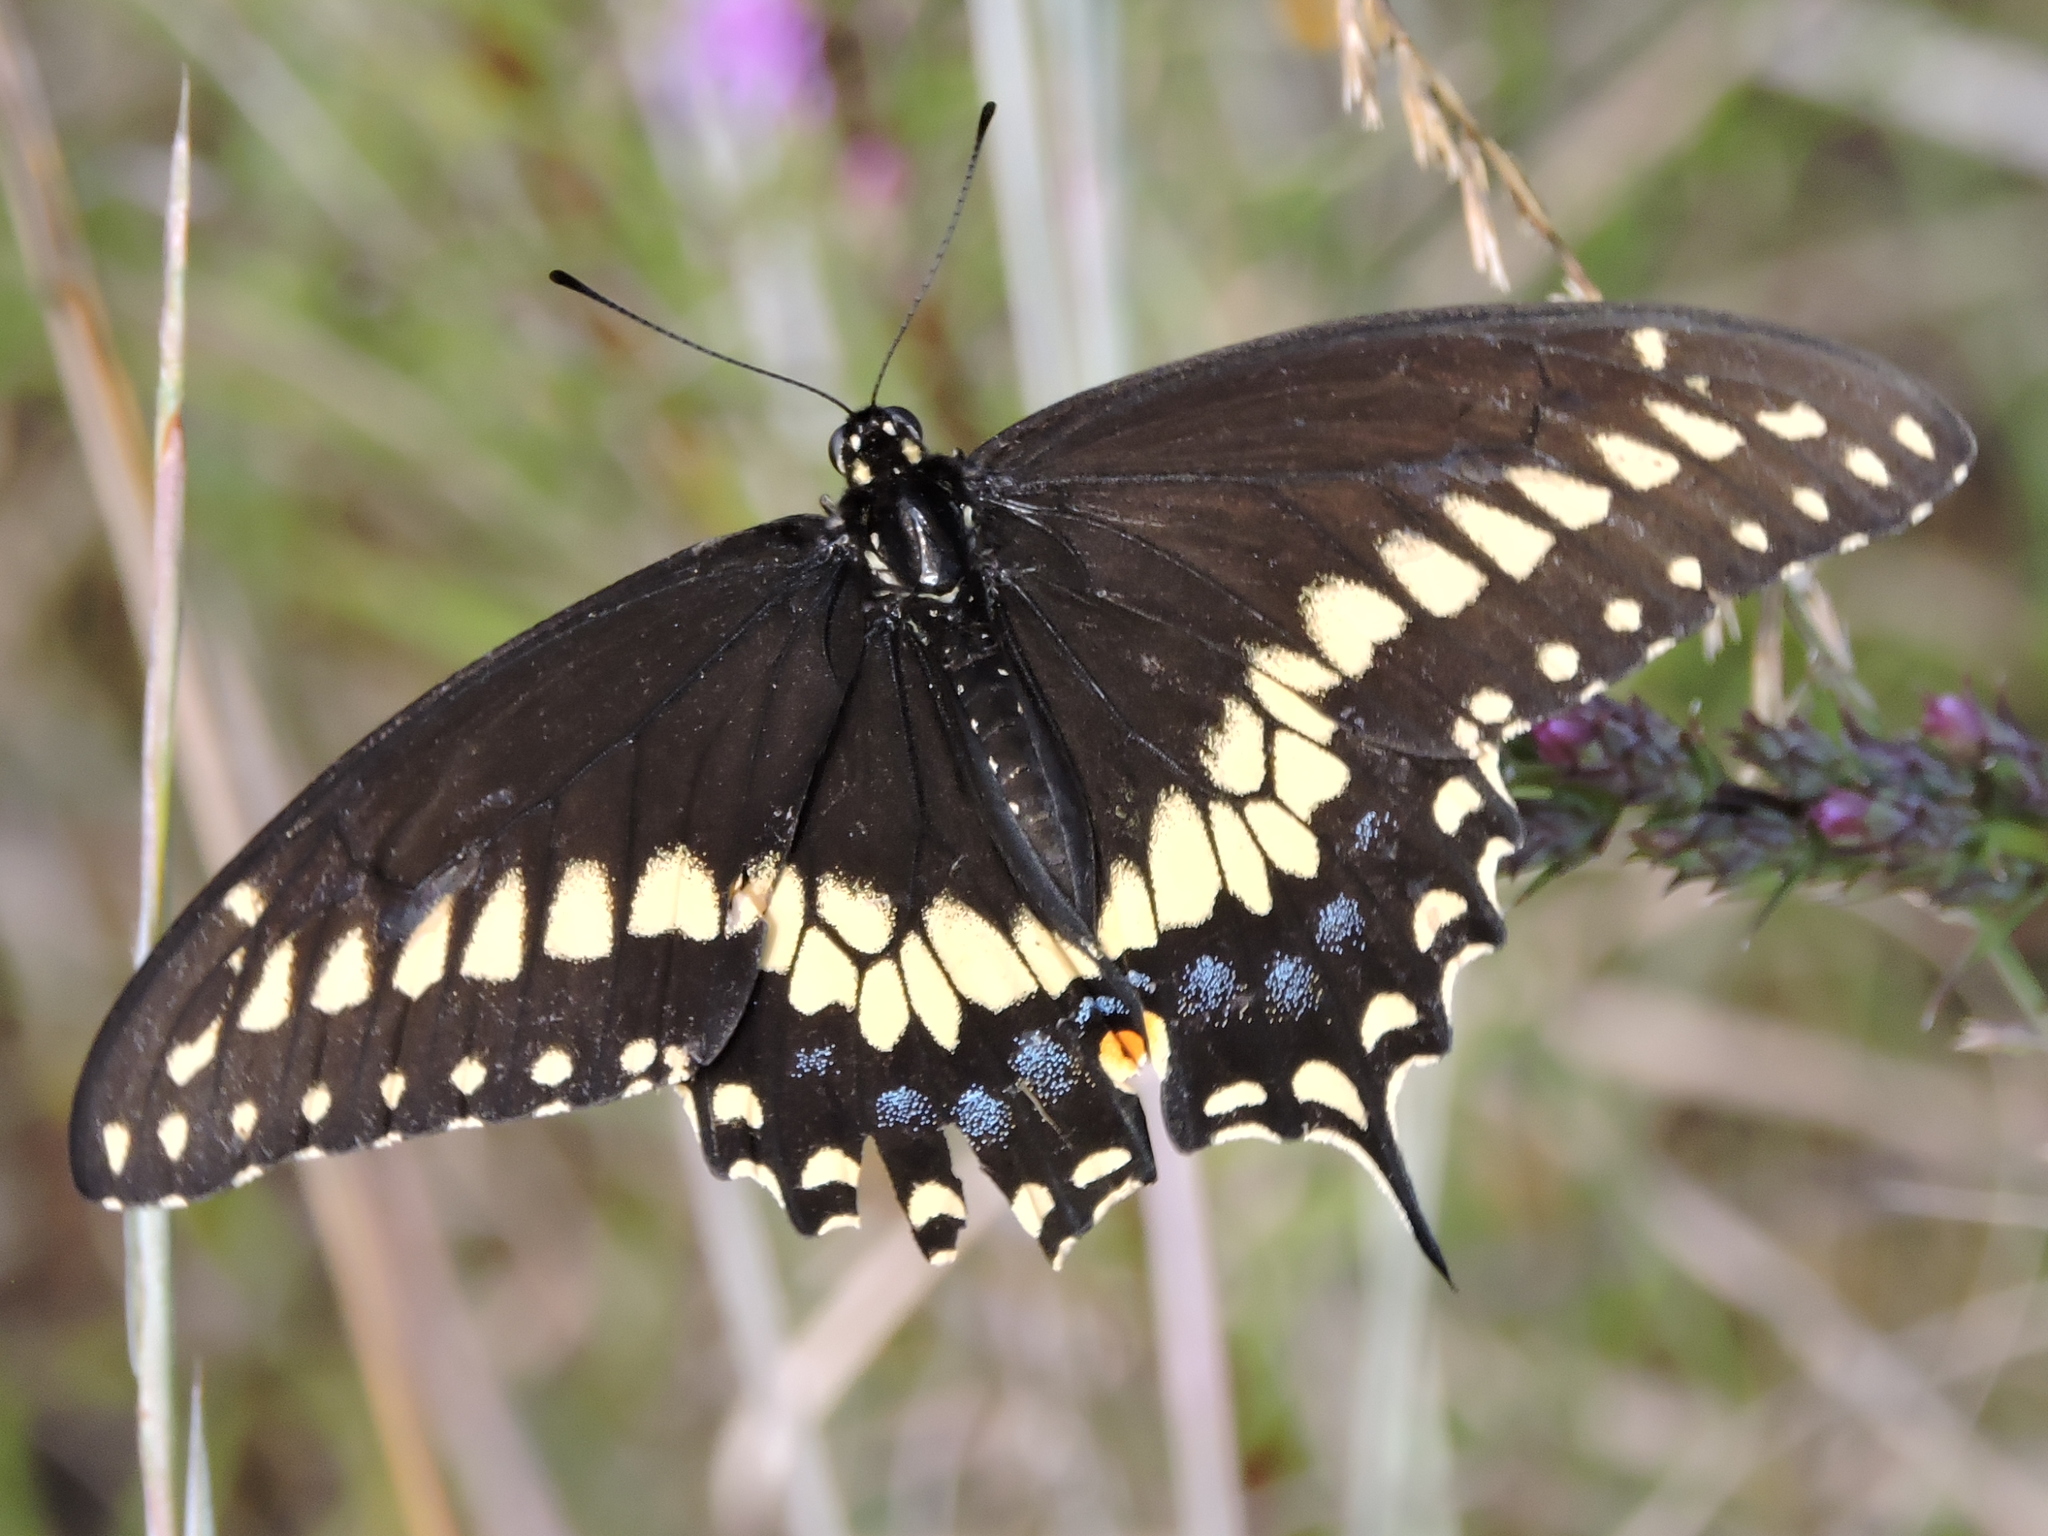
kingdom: Animalia
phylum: Arthropoda
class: Insecta
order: Lepidoptera
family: Papilionidae
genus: Papilio
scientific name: Papilio polyxenes
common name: Black swallowtail
